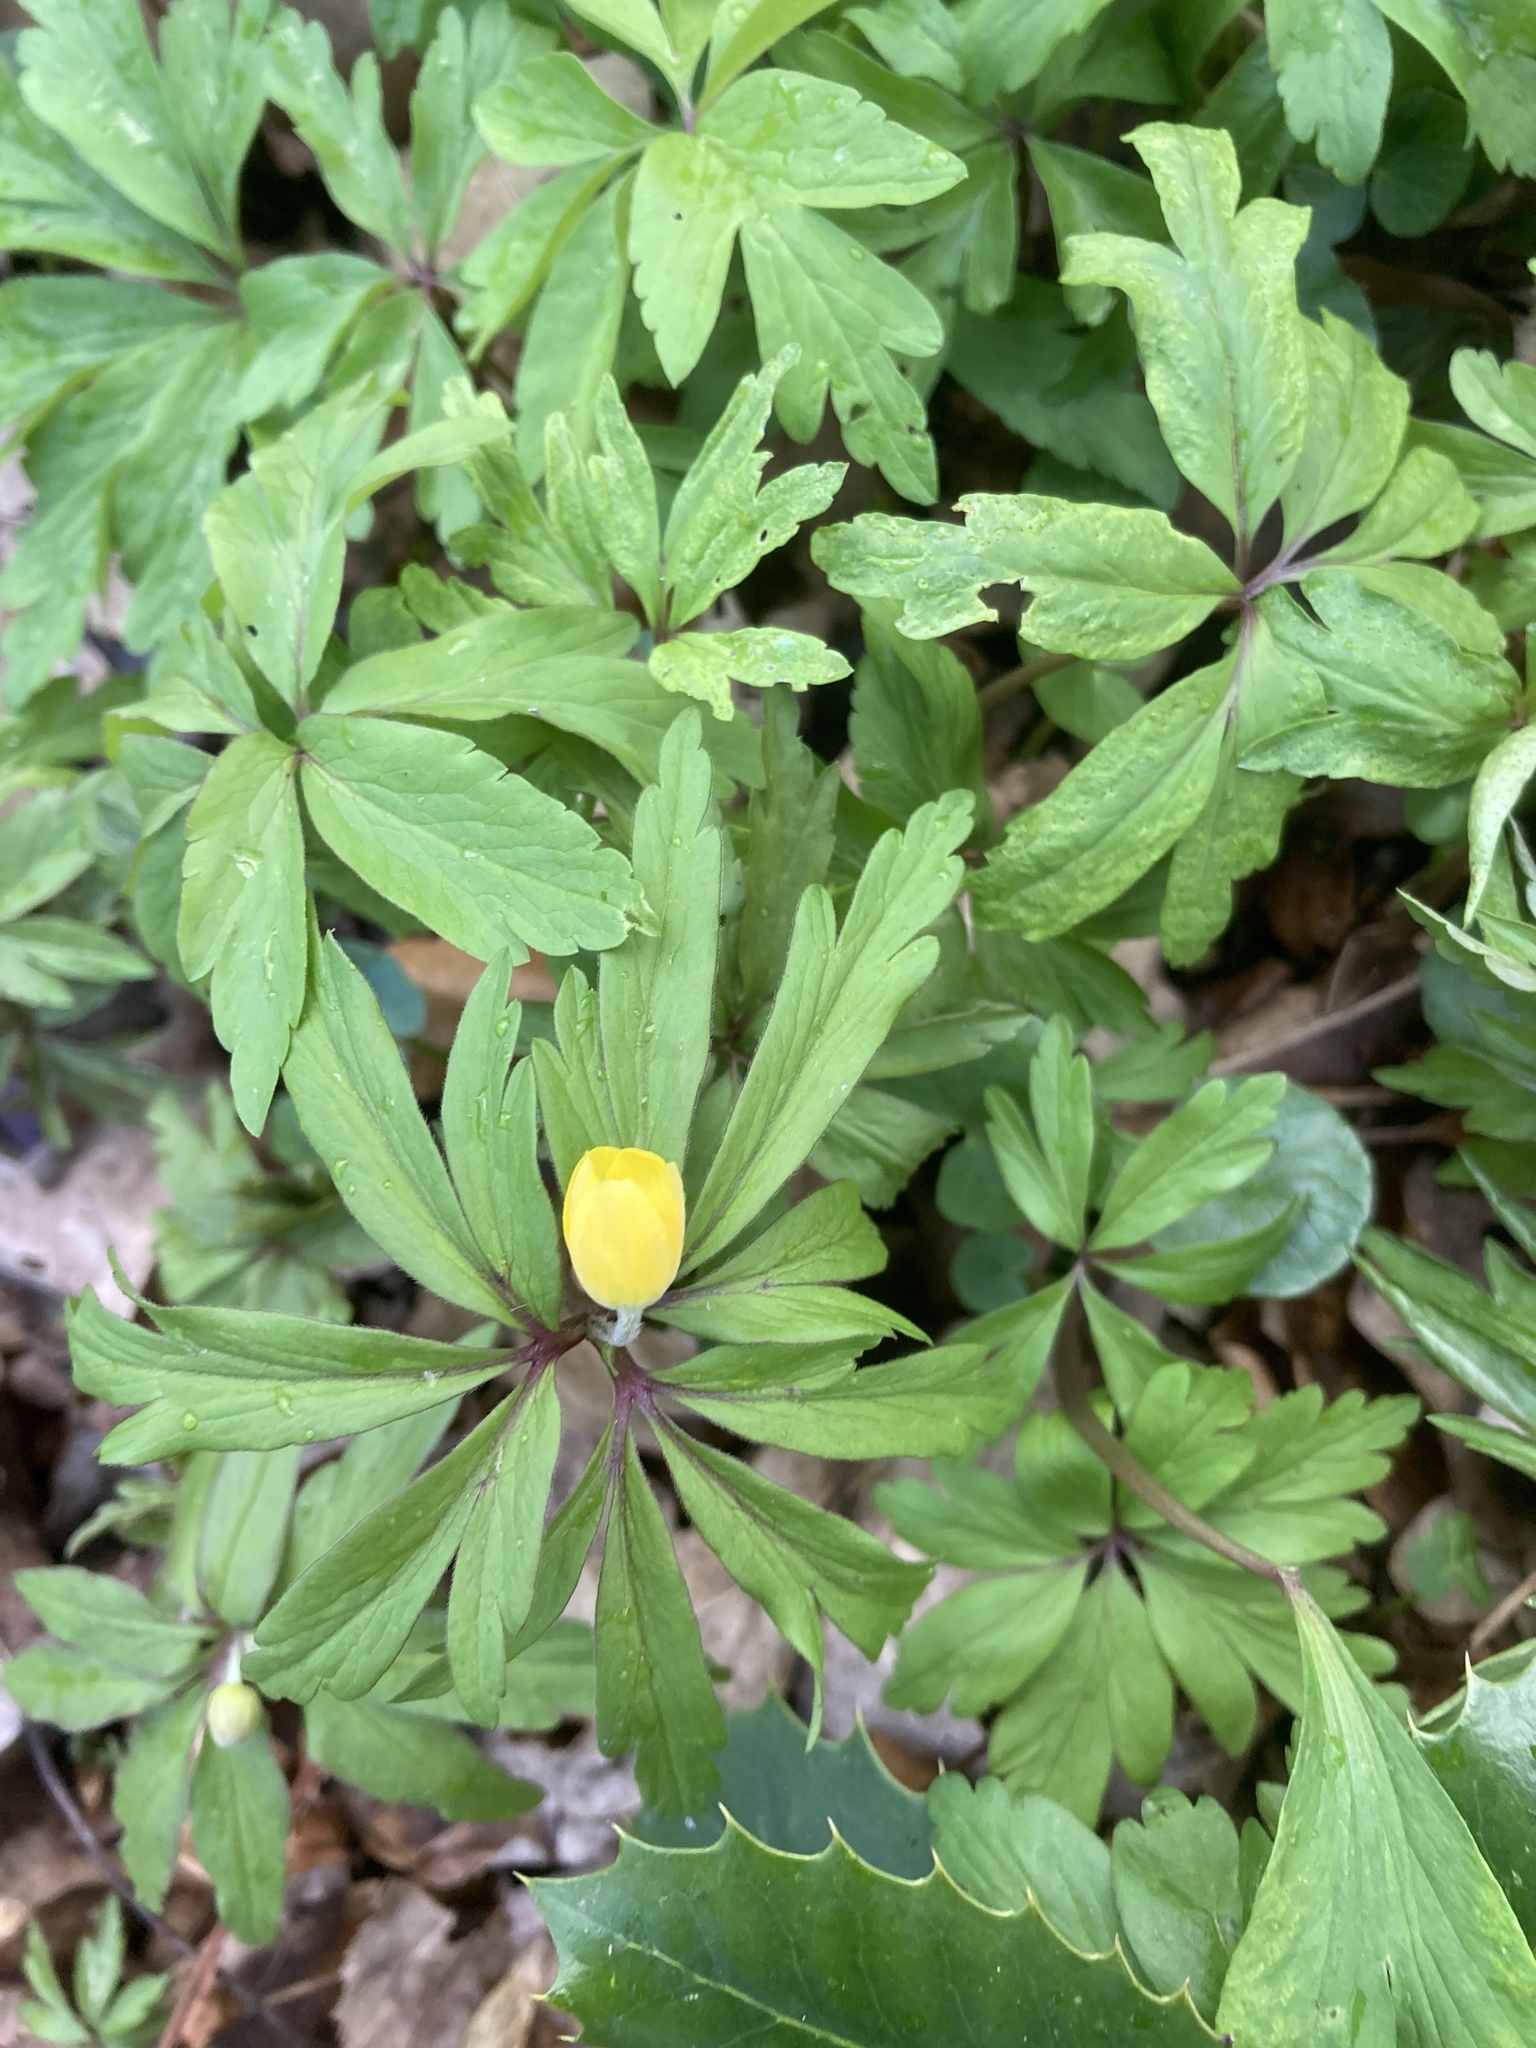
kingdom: Plantae
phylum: Tracheophyta
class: Magnoliopsida
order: Ranunculales
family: Ranunculaceae
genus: Anemone
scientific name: Anemone ranunculoides
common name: Yellow anemone
